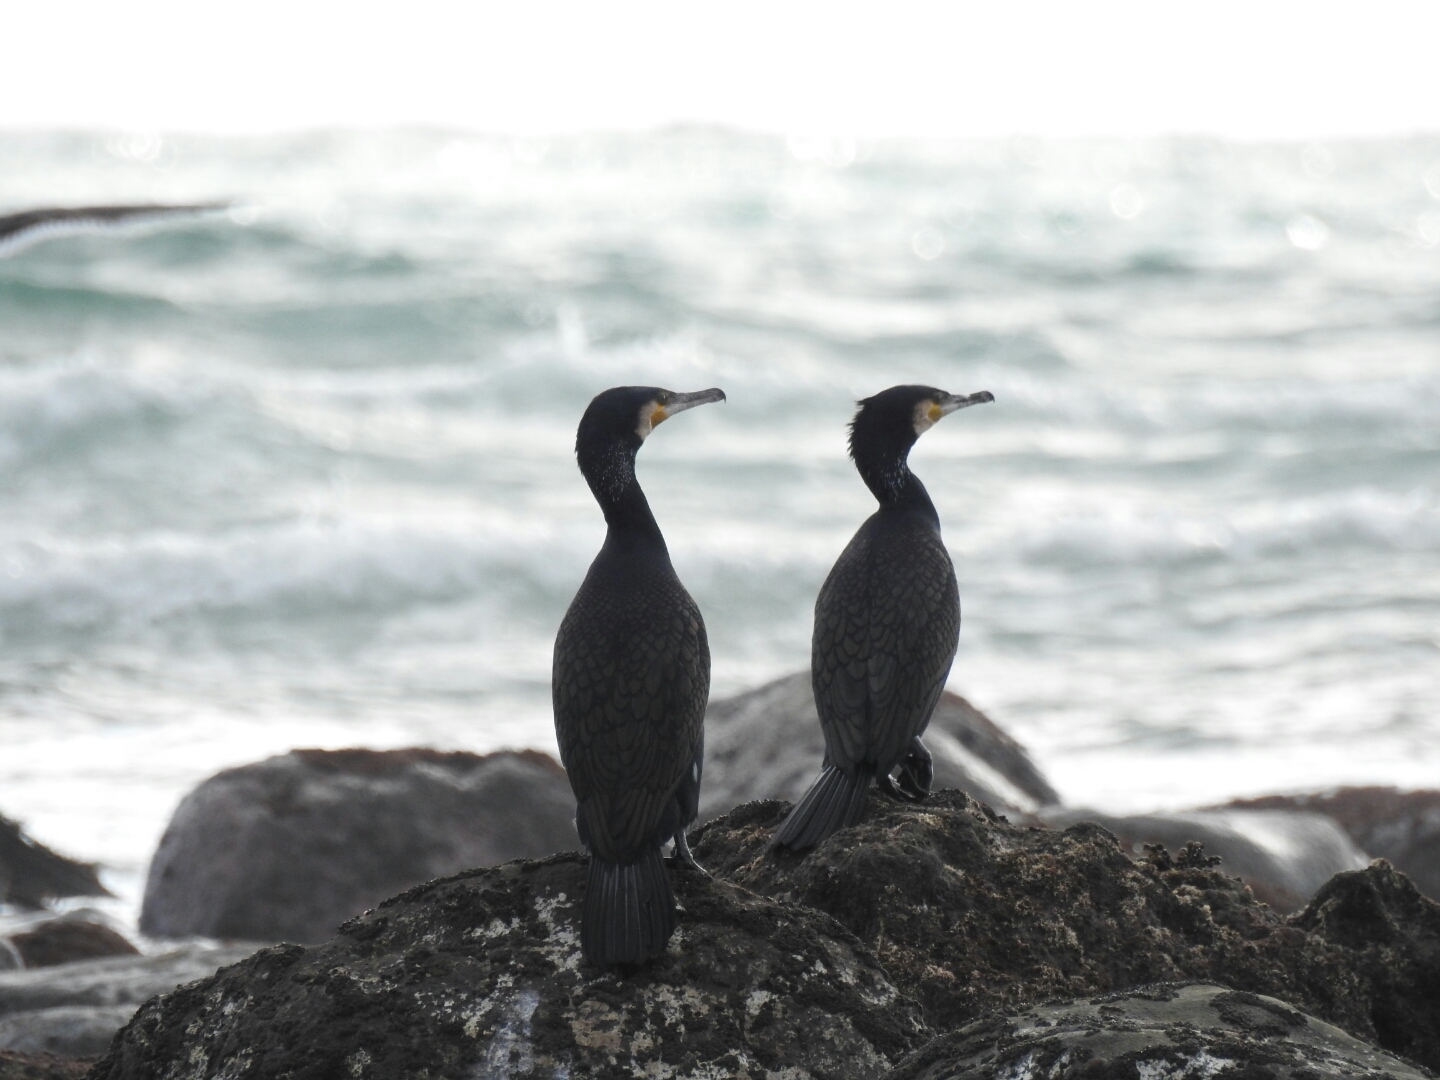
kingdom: Animalia
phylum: Chordata
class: Aves
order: Suliformes
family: Phalacrocoracidae
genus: Phalacrocorax
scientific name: Phalacrocorax carbo
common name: Great cormorant
